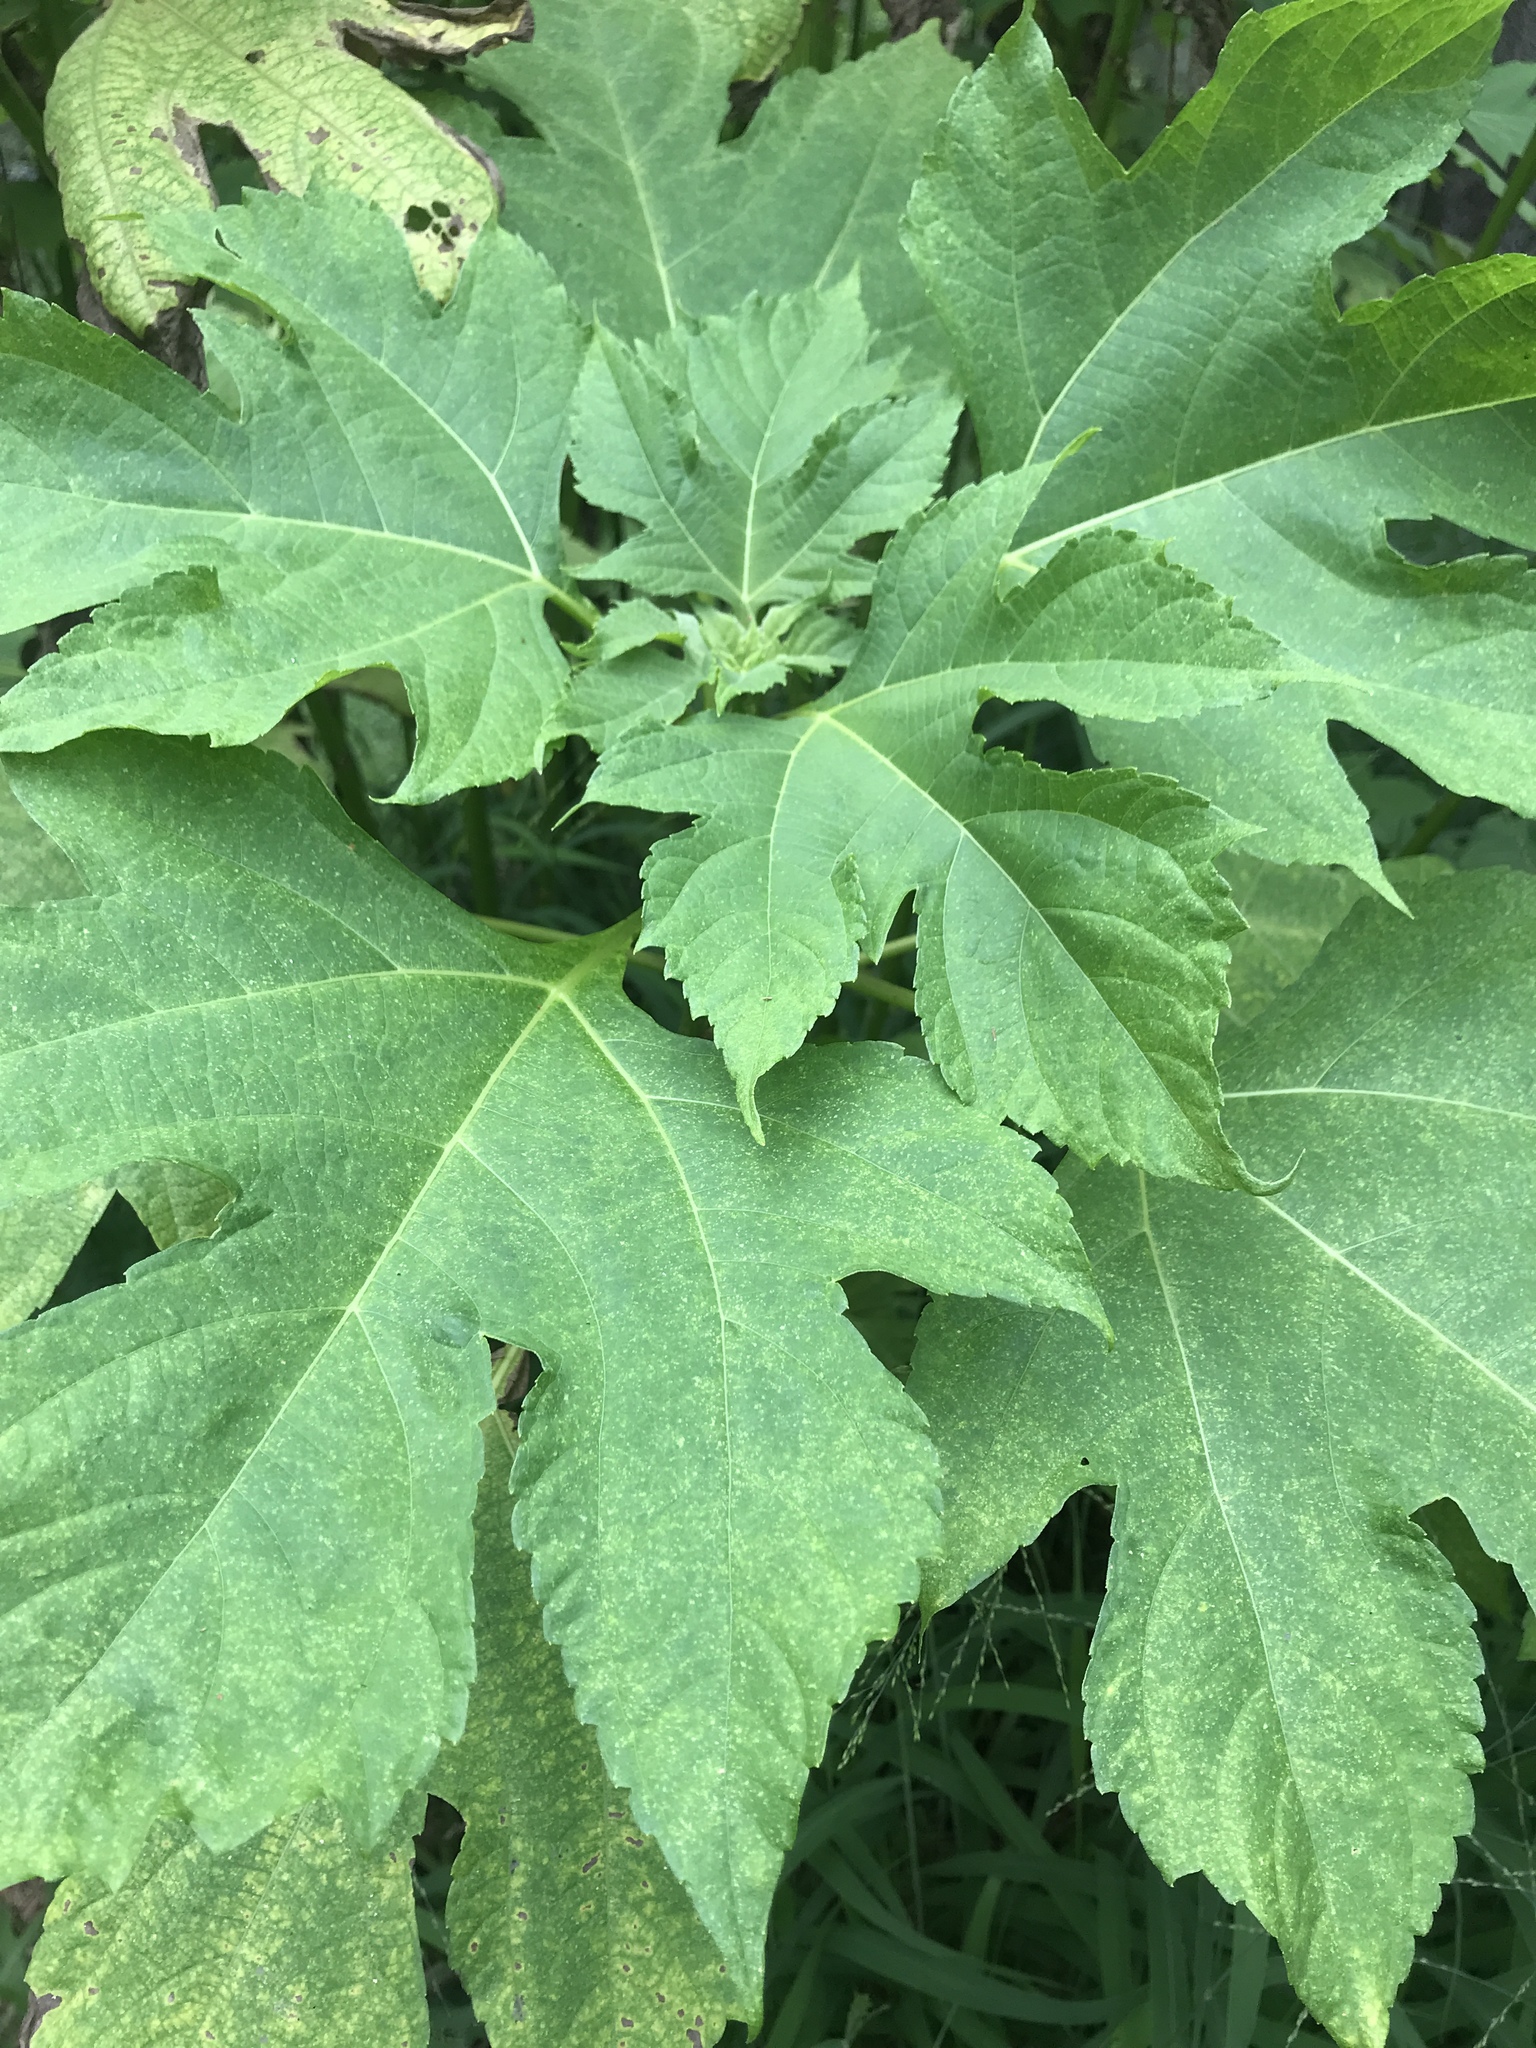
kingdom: Plantae
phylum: Tracheophyta
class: Magnoliopsida
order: Asterales
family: Asteraceae
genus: Tithonia
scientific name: Tithonia diversifolia
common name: Tree marigold
